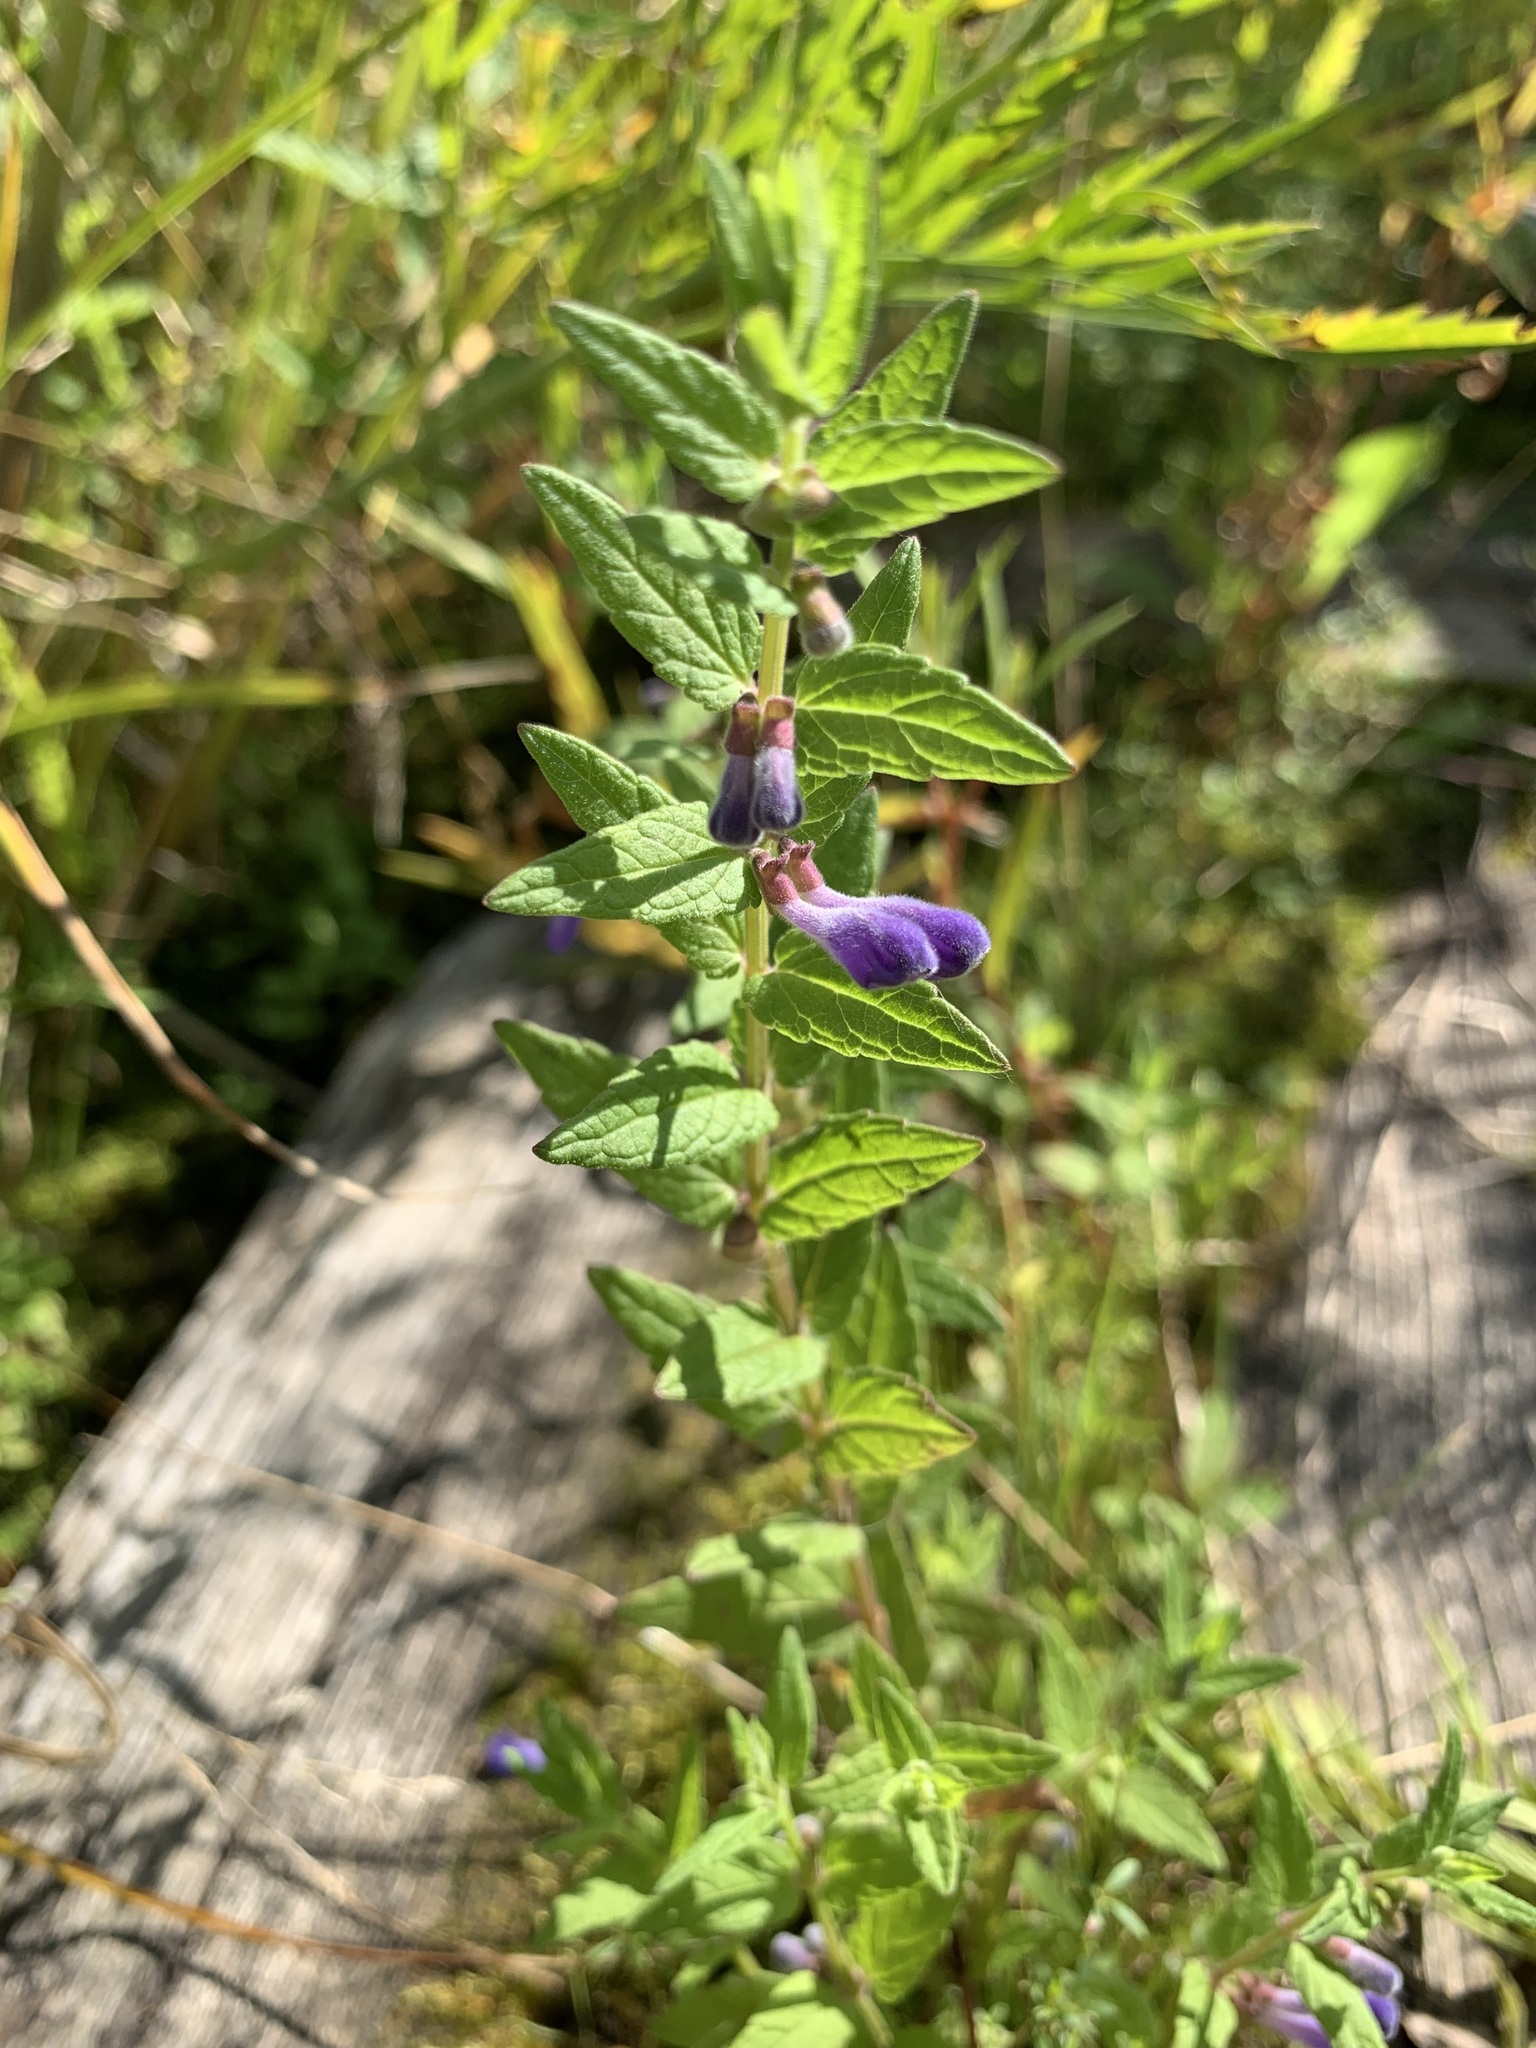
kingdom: Plantae
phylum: Tracheophyta
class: Magnoliopsida
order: Lamiales
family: Lamiaceae
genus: Scutellaria
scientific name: Scutellaria galericulata
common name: Skullcap
